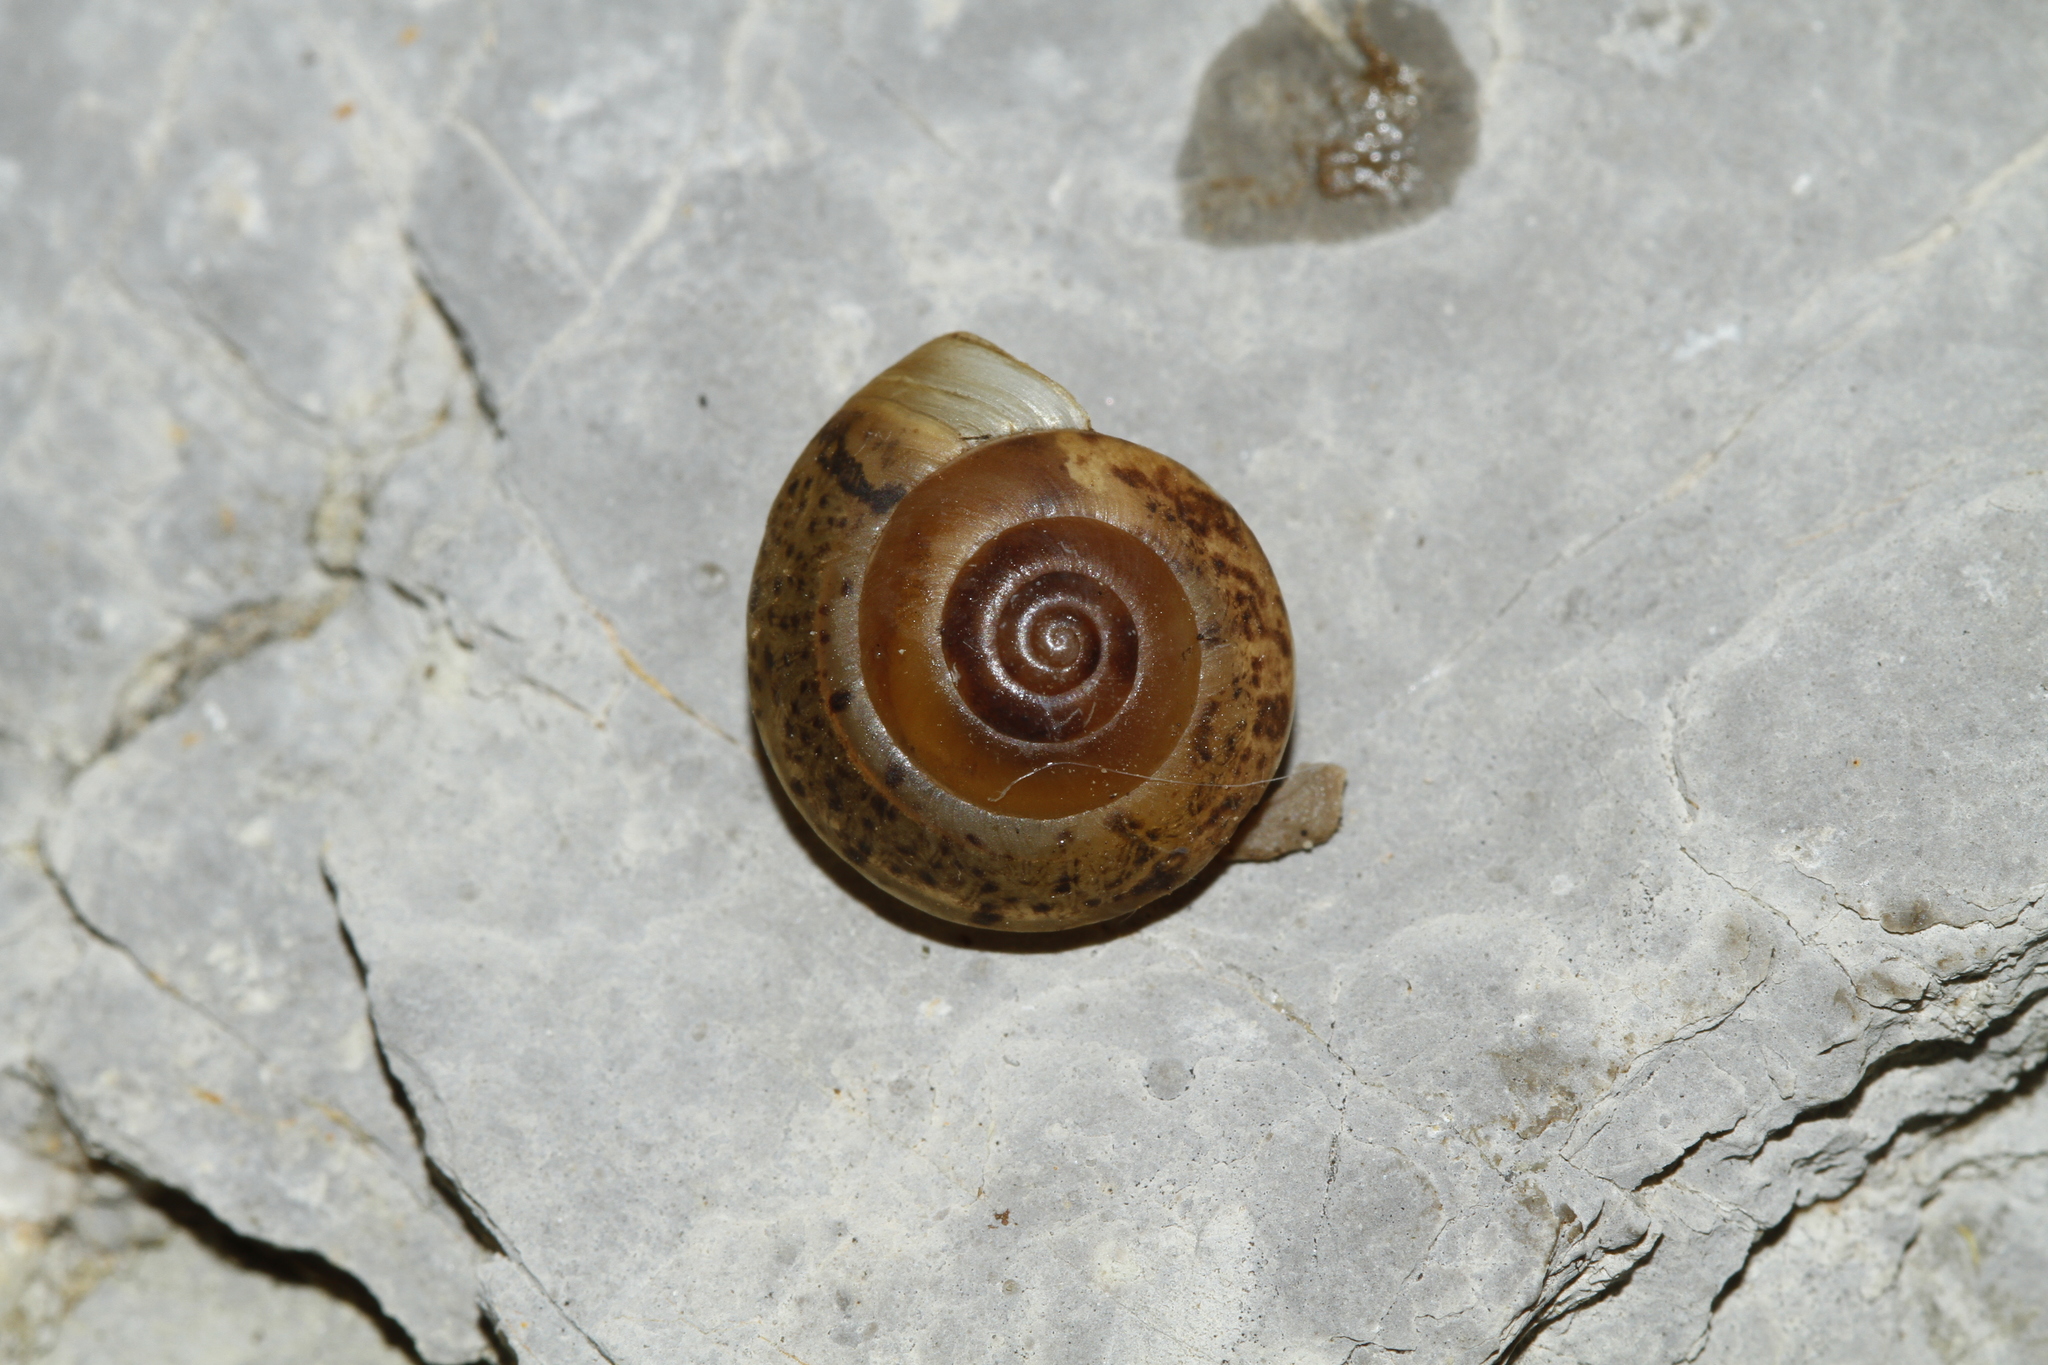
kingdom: Animalia
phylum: Mollusca
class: Gastropoda
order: Stylommatophora
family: Hygromiidae
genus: Hygromia
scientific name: Hygromia cinctella
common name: Girdled snail
